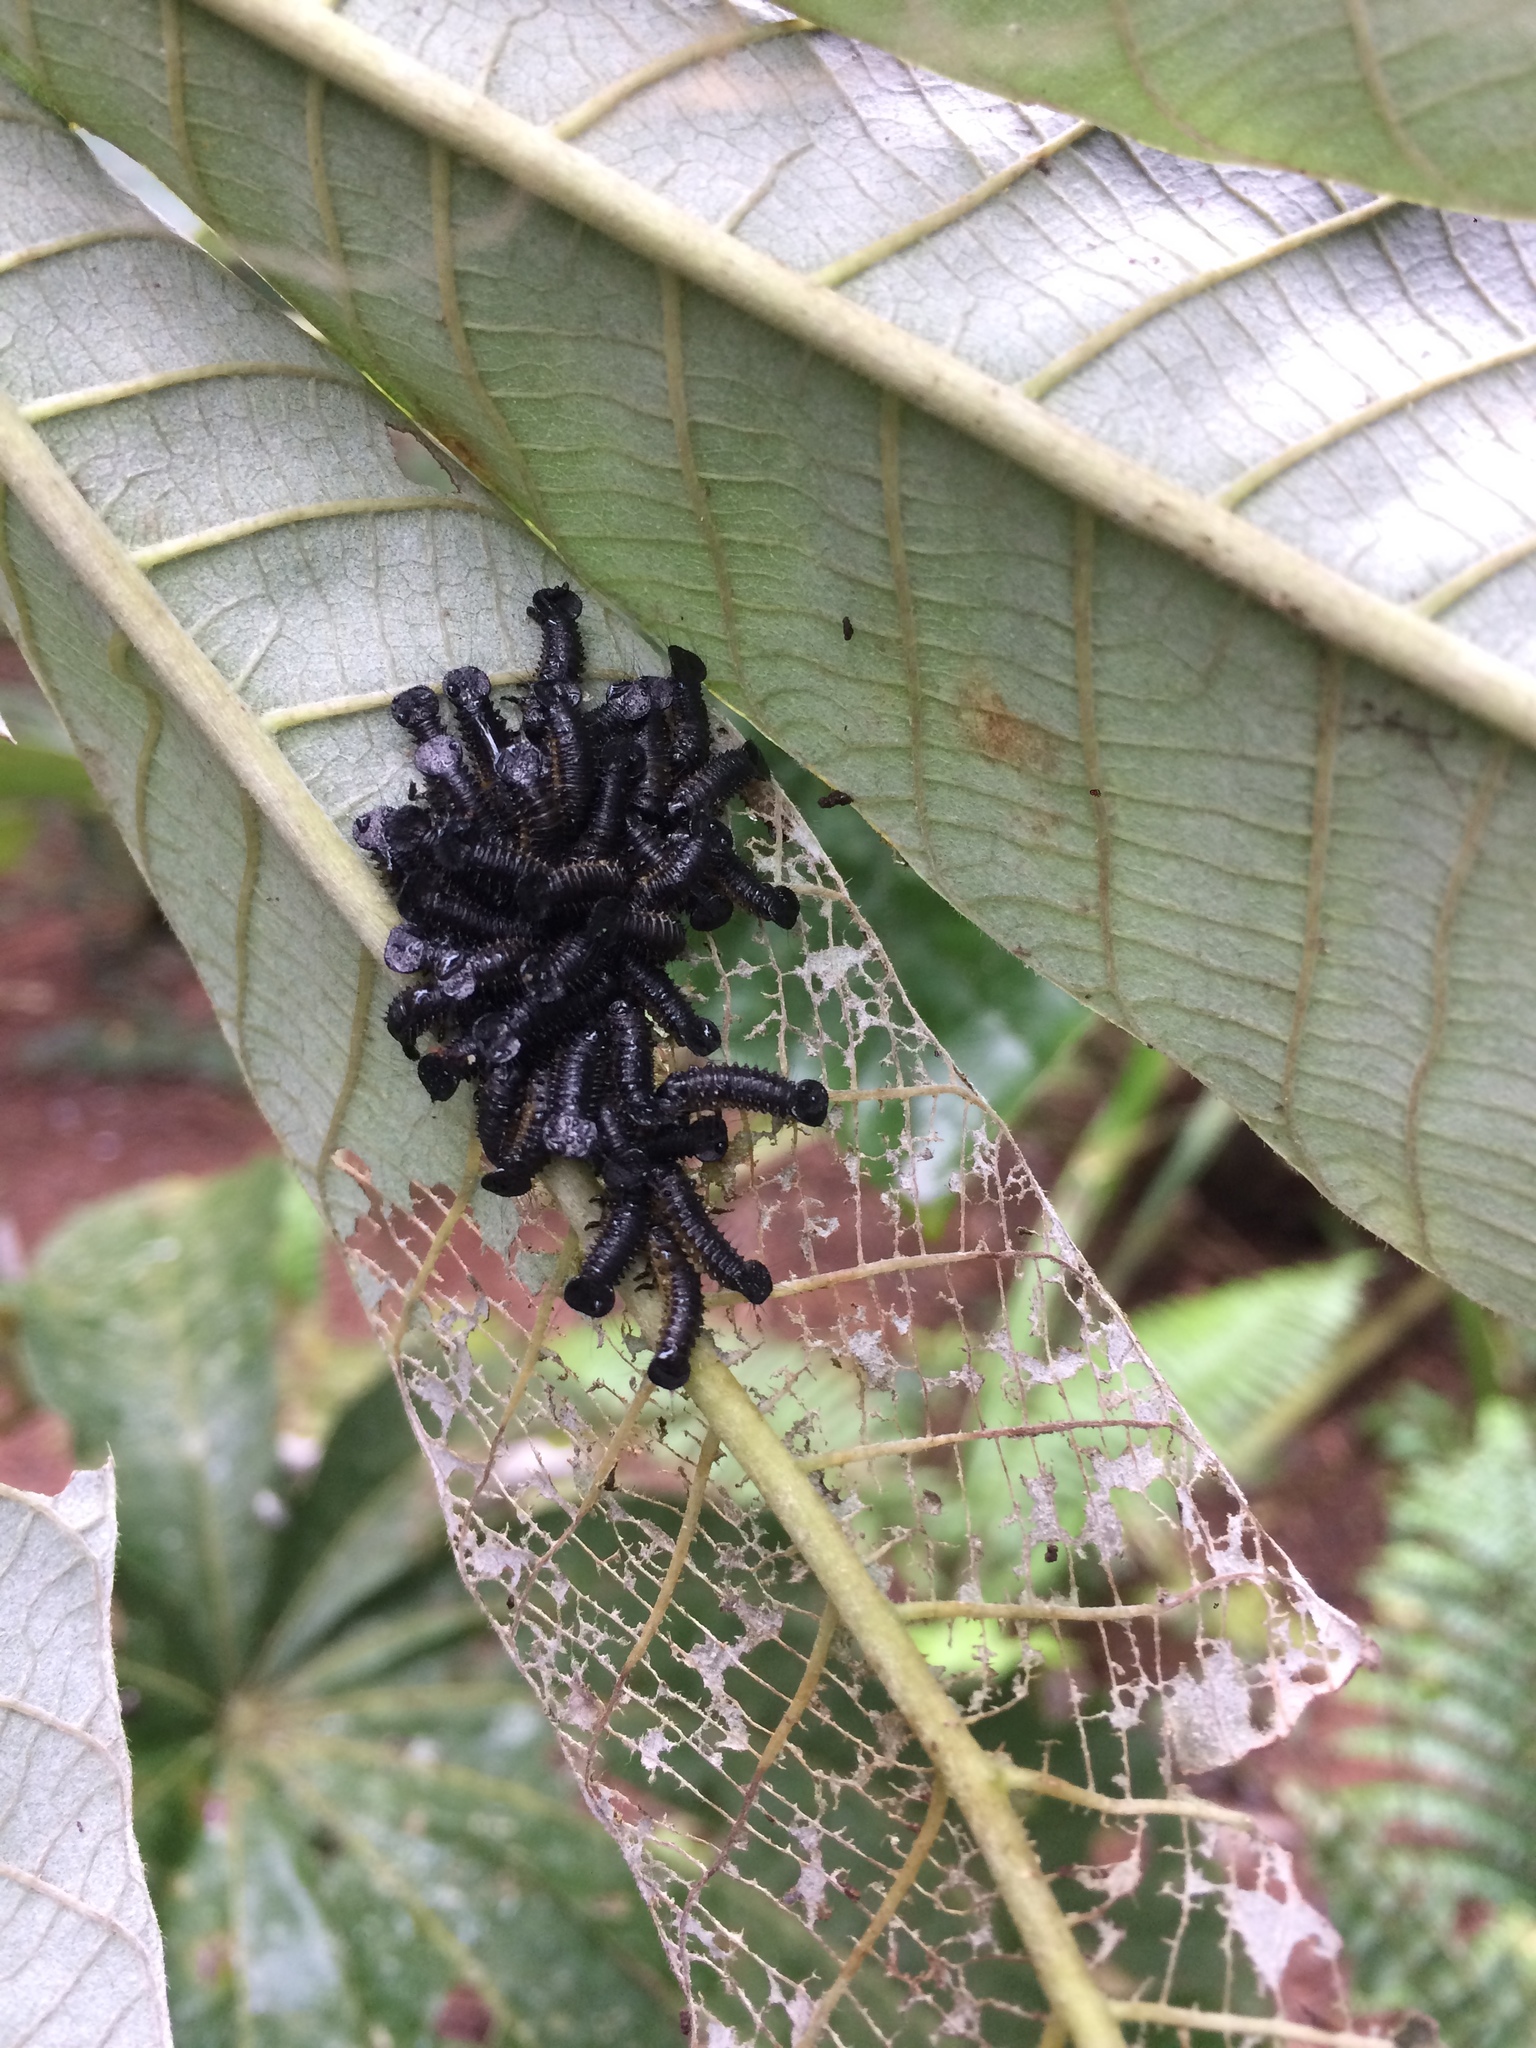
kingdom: Animalia
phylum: Arthropoda
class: Insecta
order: Coleoptera
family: Chrysomelidae
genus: Coelomera
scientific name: Coelomera
